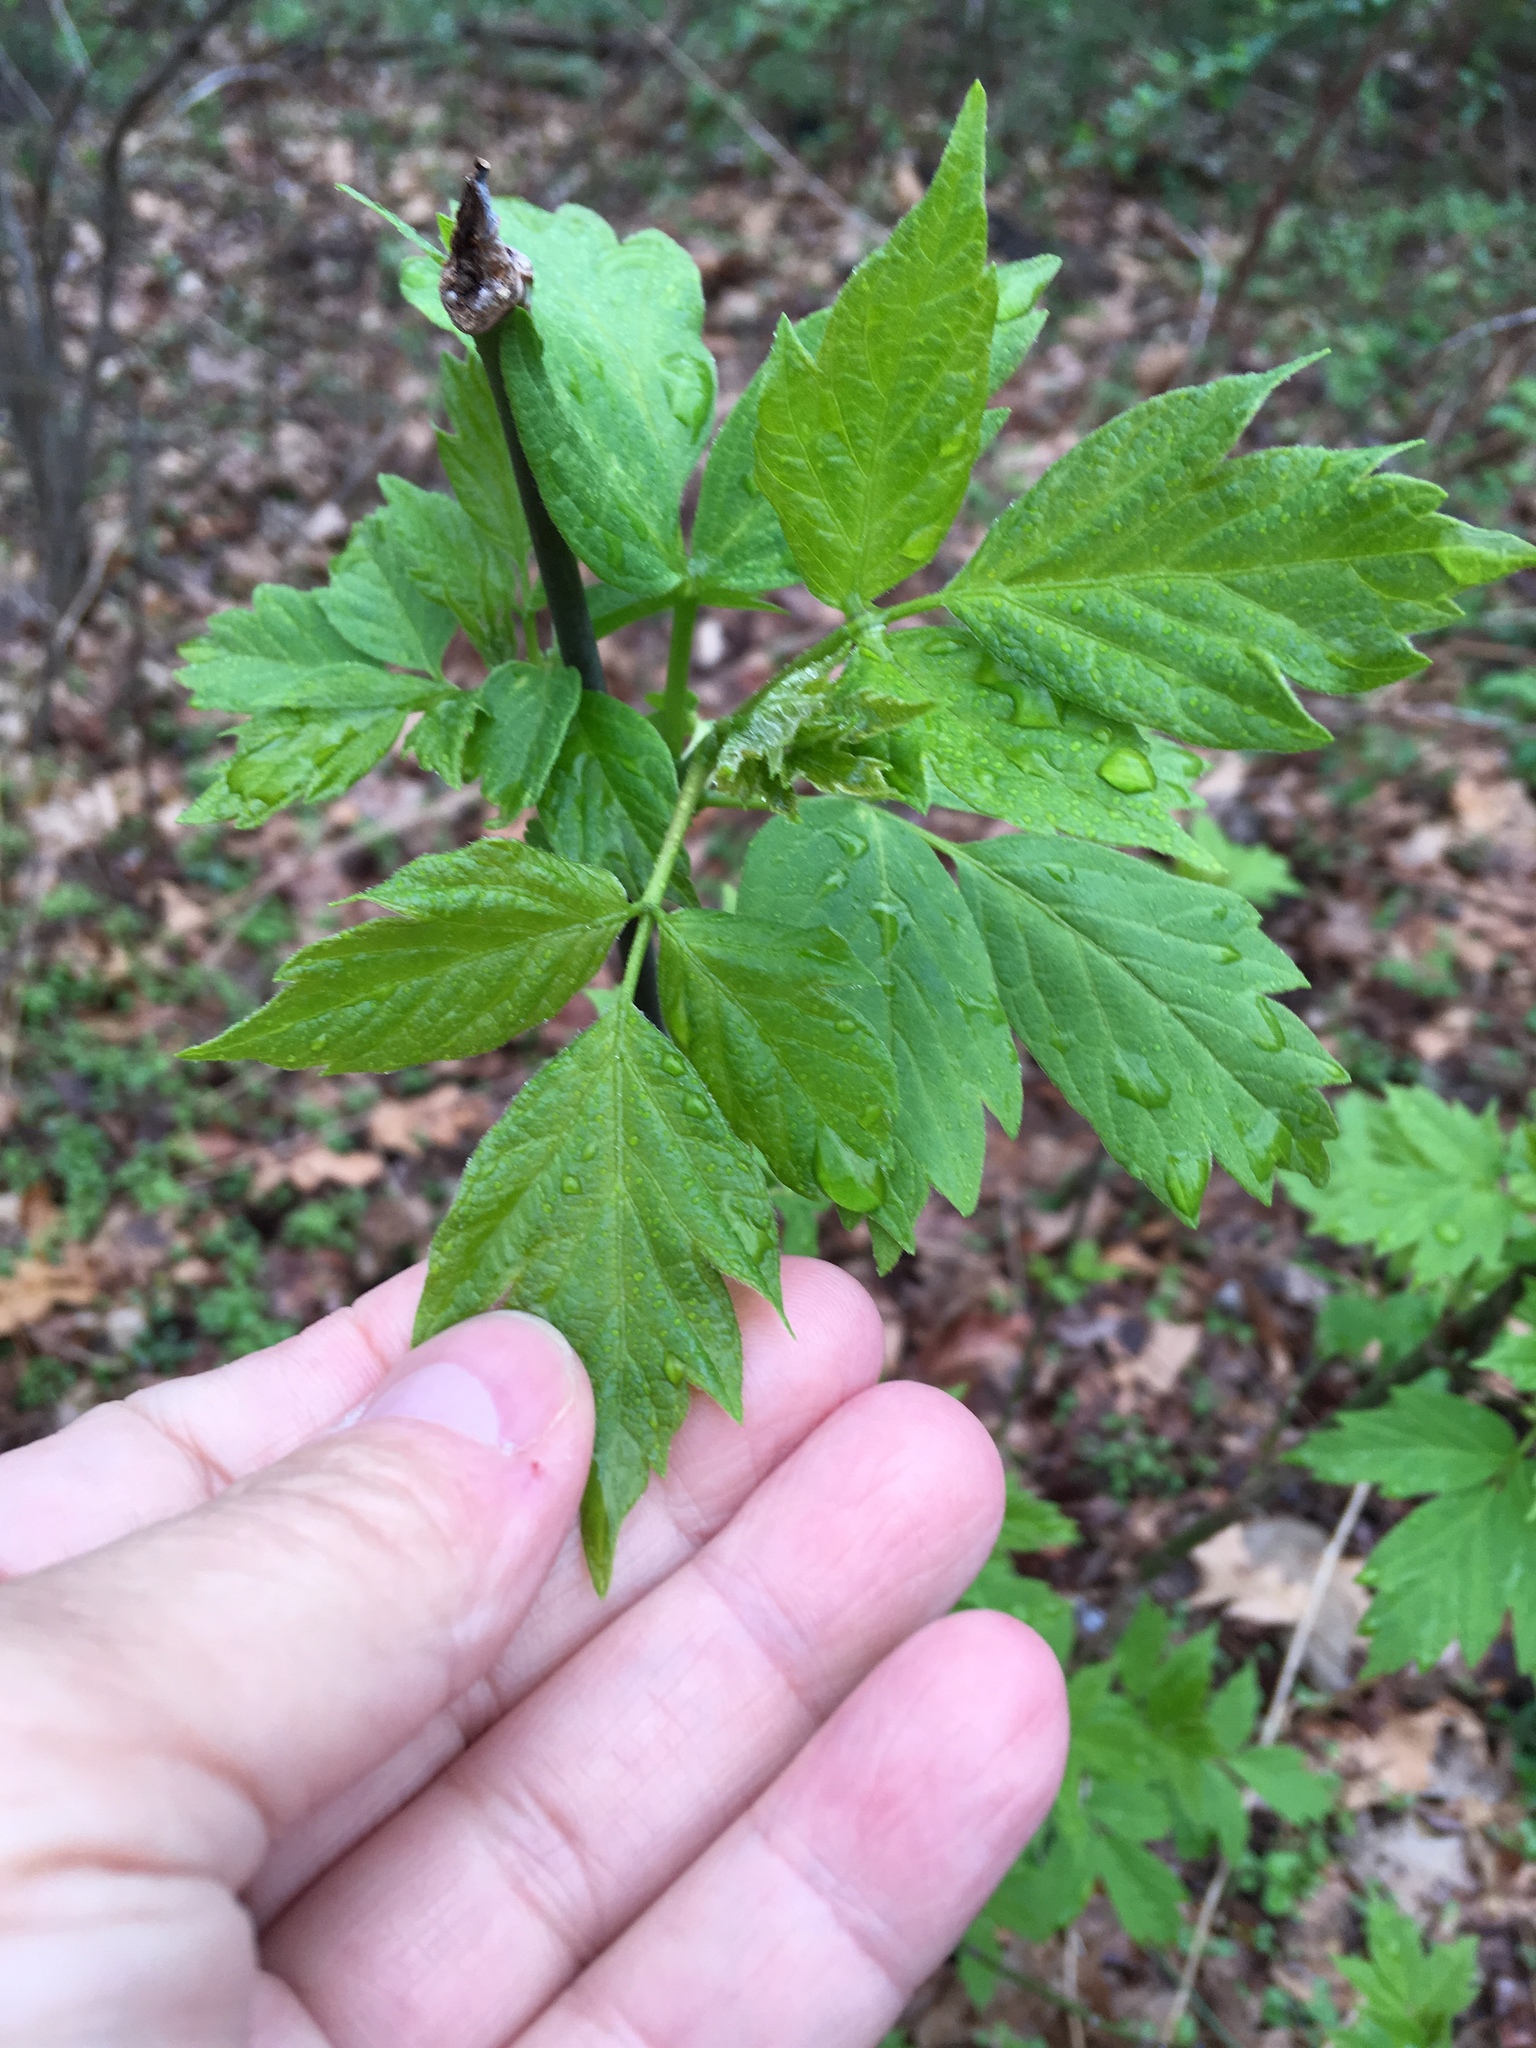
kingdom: Plantae
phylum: Tracheophyta
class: Magnoliopsida
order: Sapindales
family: Sapindaceae
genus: Acer
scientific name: Acer negundo
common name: Ashleaf maple
